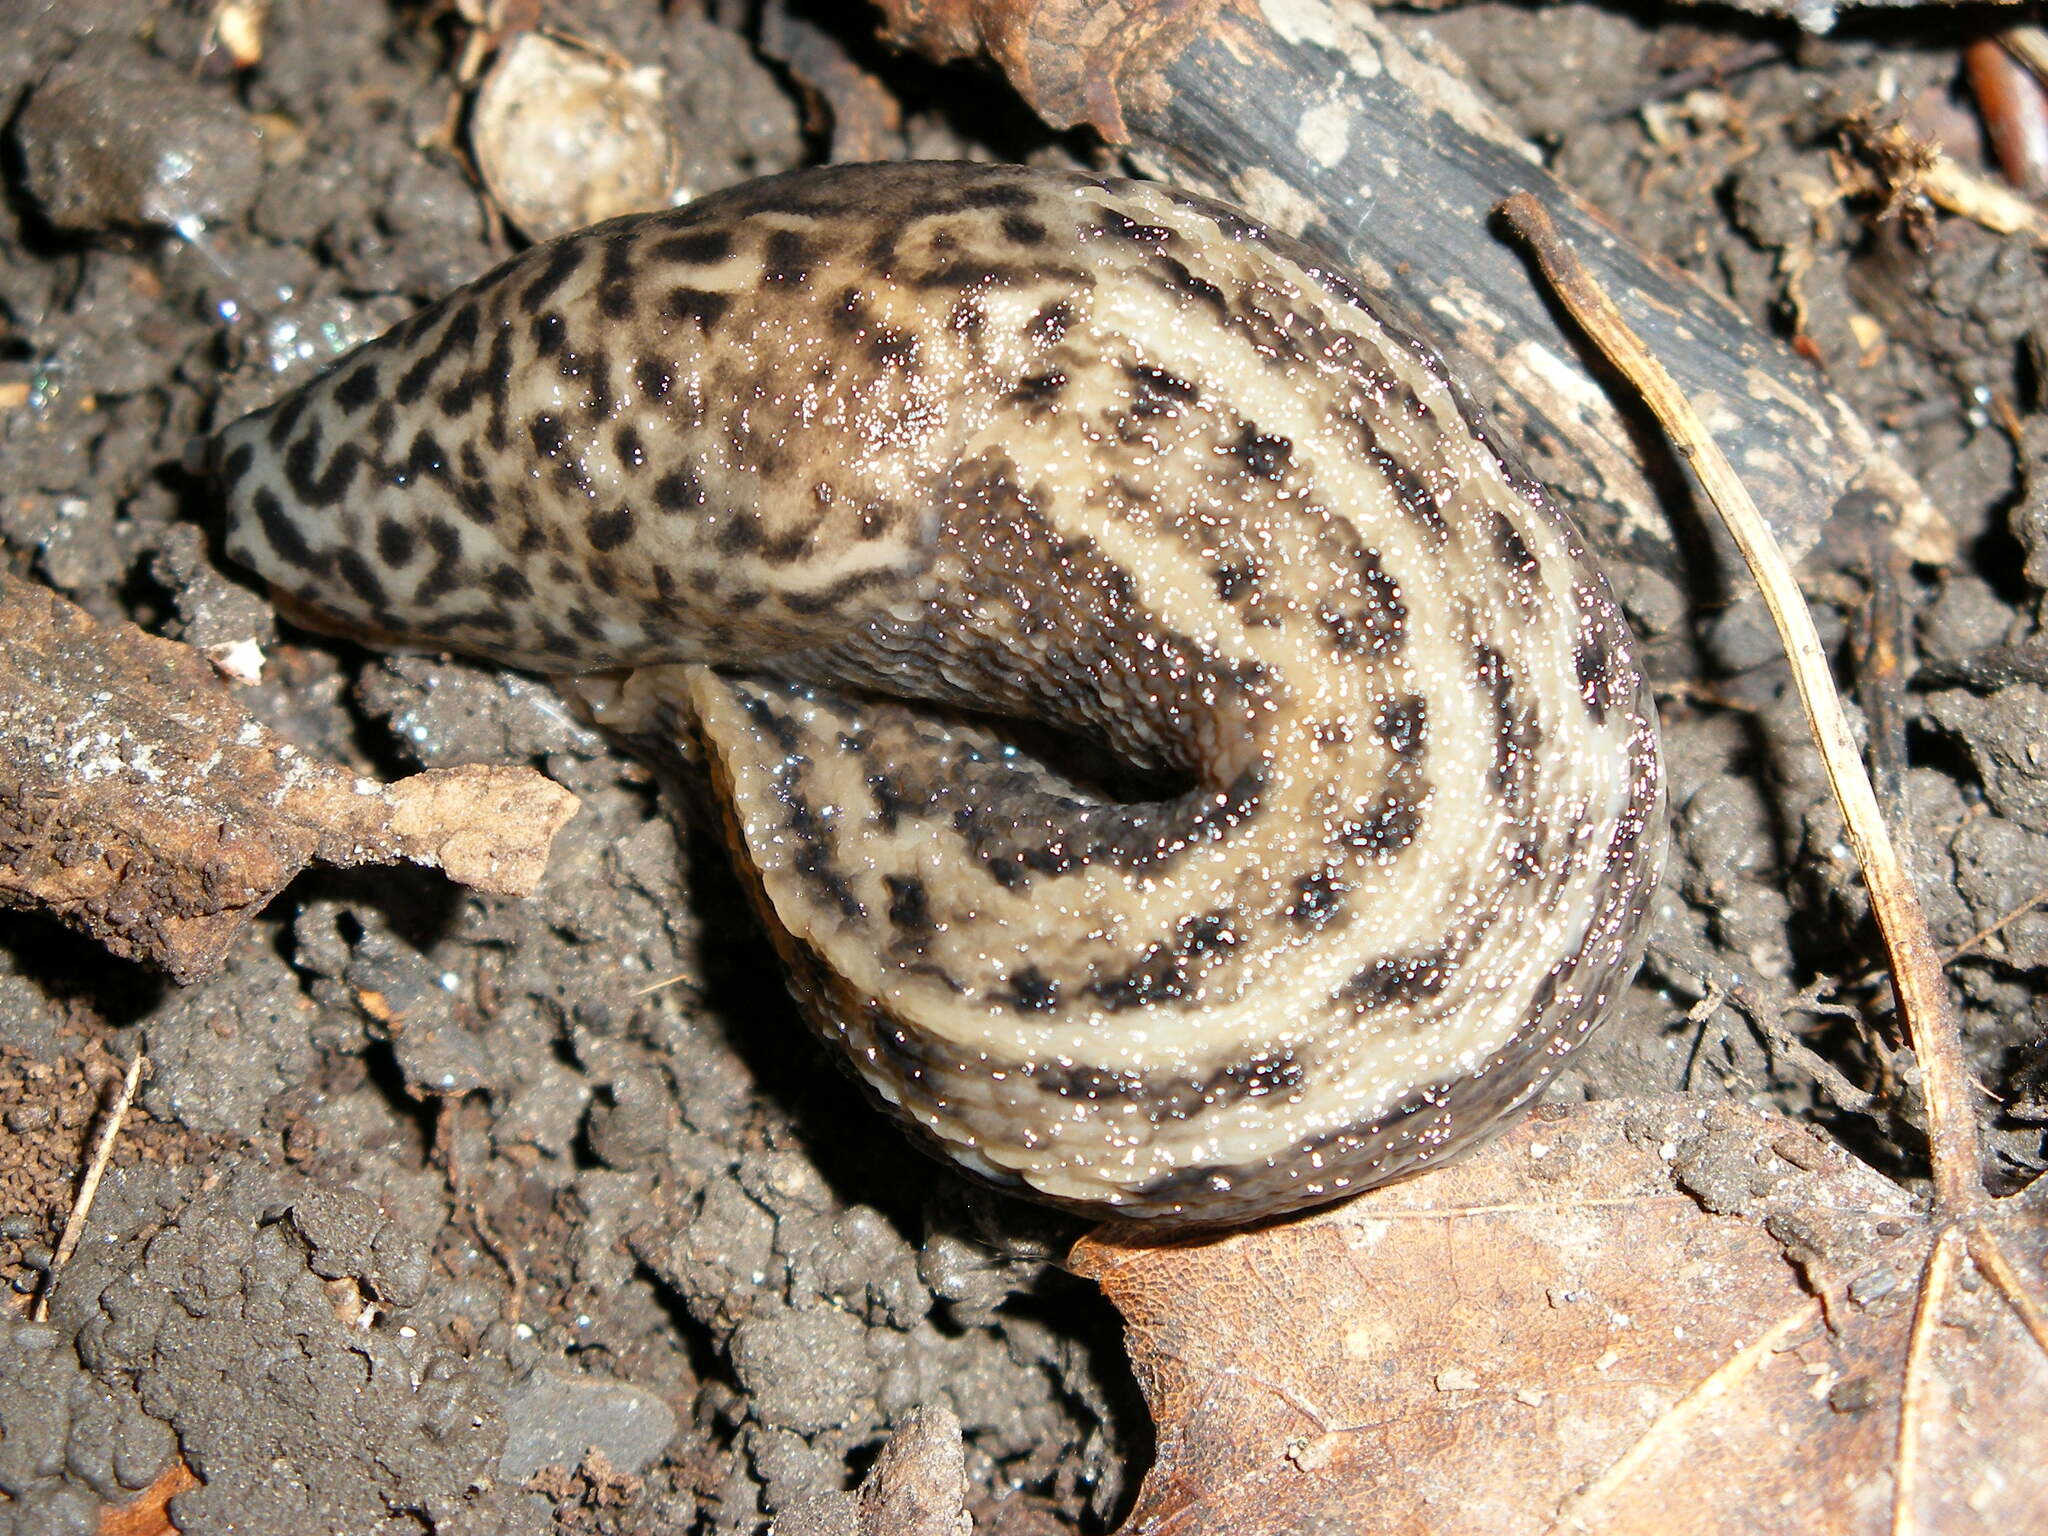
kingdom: Animalia
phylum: Mollusca
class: Gastropoda
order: Stylommatophora
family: Limacidae
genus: Limax
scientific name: Limax maximus
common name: Great grey slug
